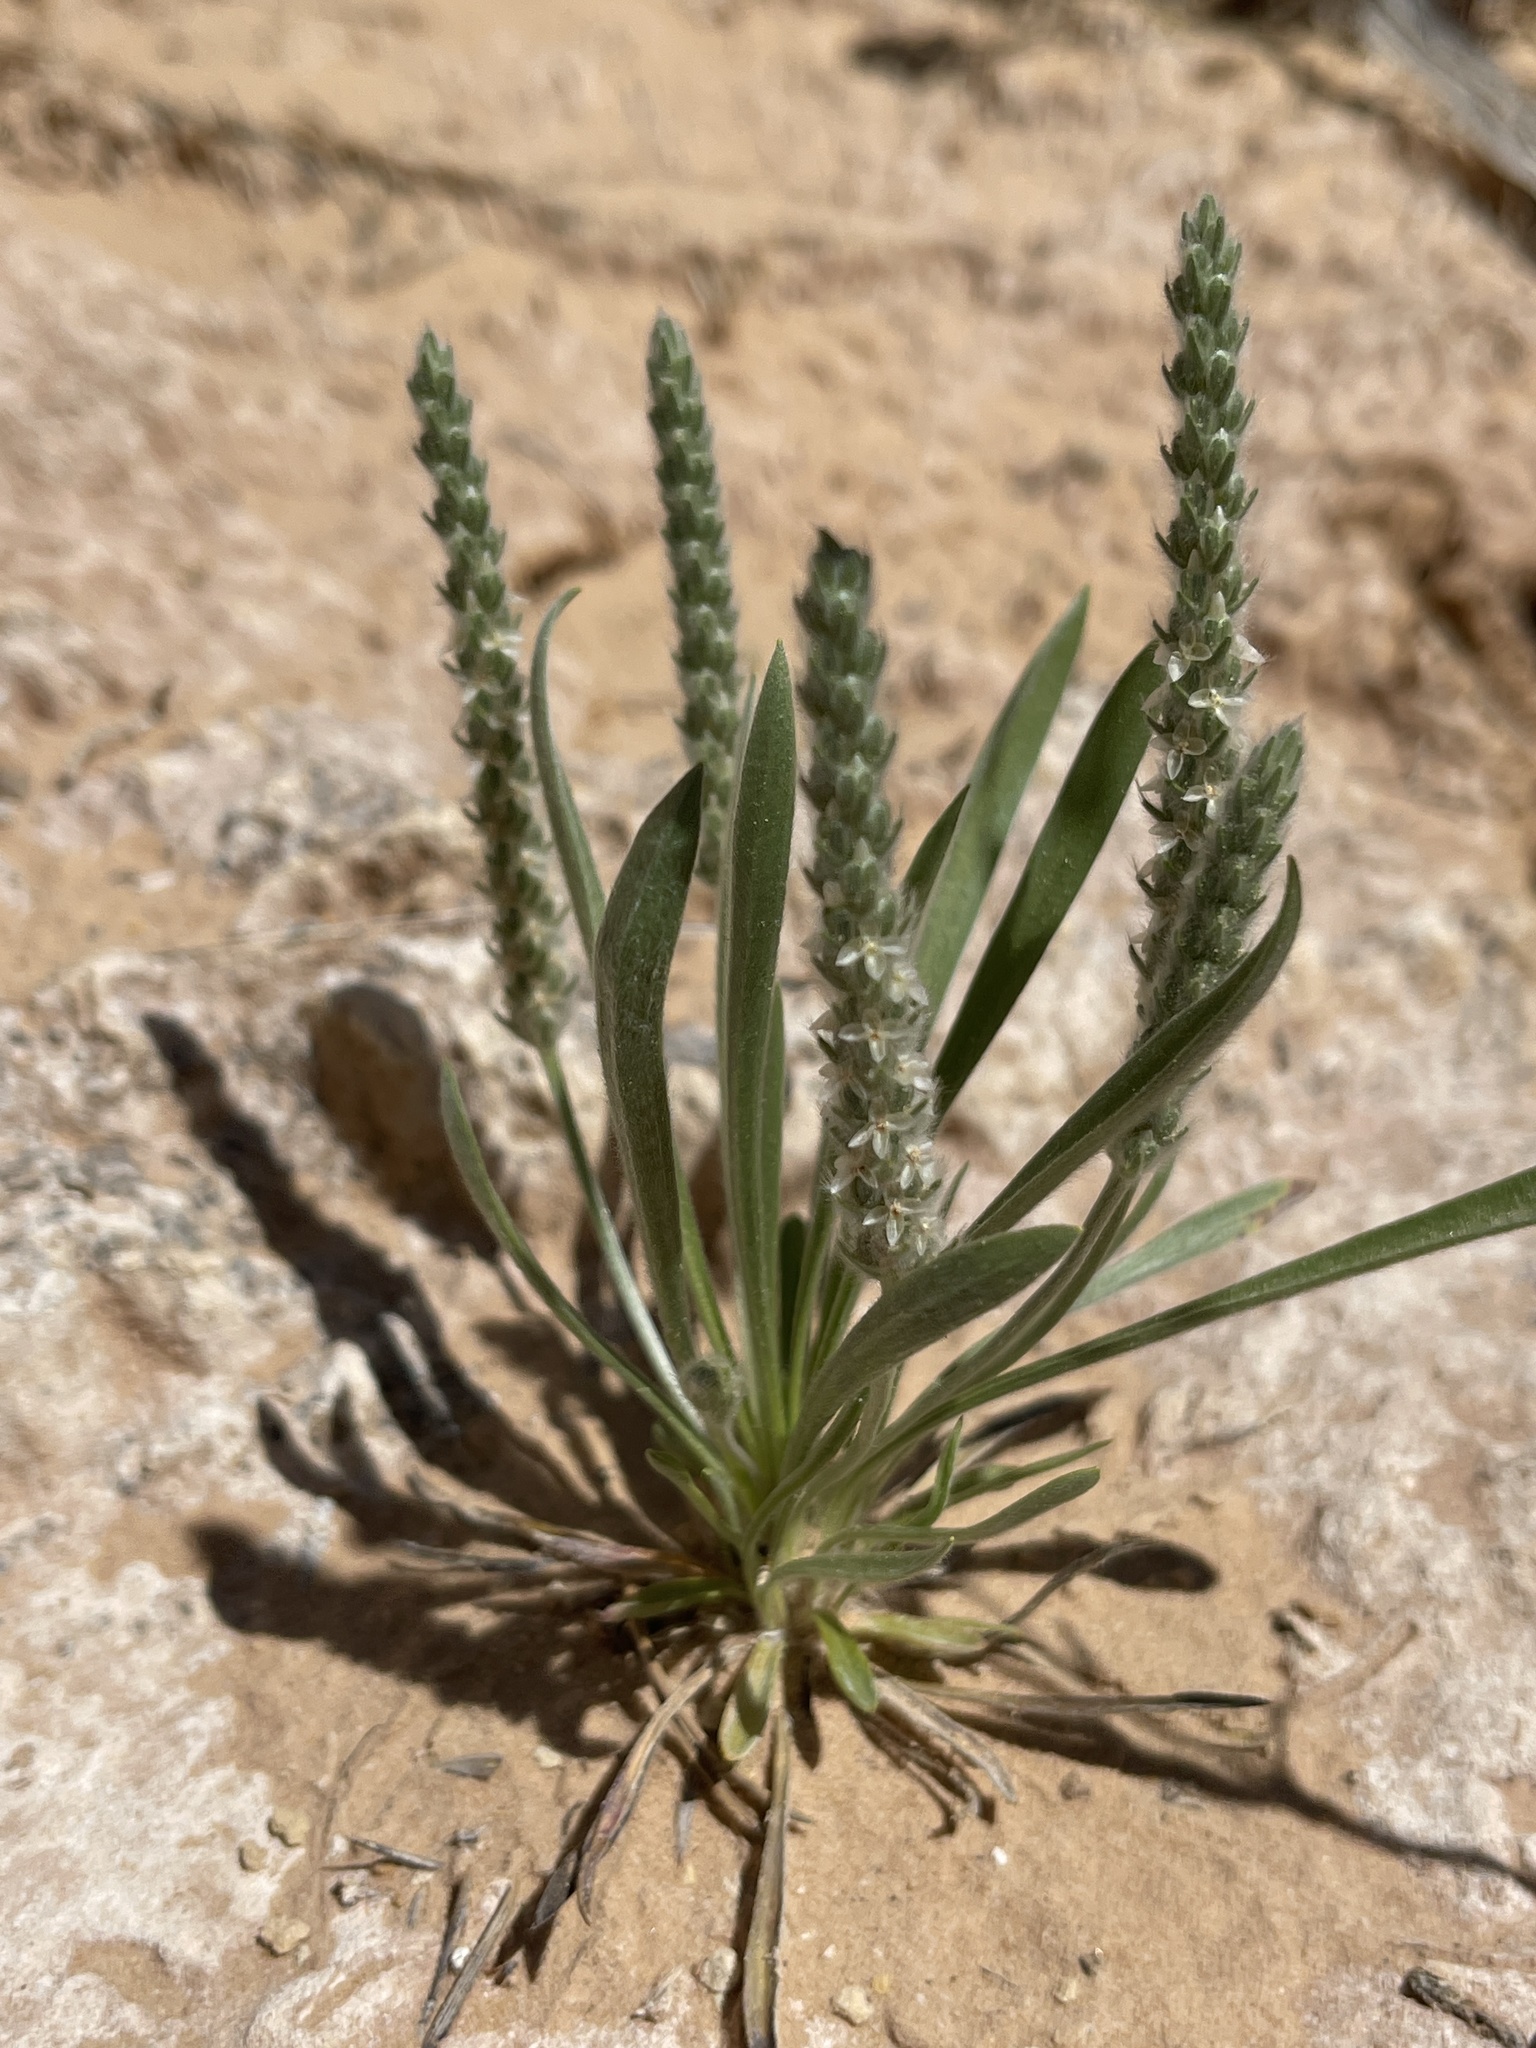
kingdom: Plantae
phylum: Tracheophyta
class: Magnoliopsida
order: Lamiales
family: Plantaginaceae
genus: Plantago
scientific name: Plantago patagonica
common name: Patagonia indian-wheat
